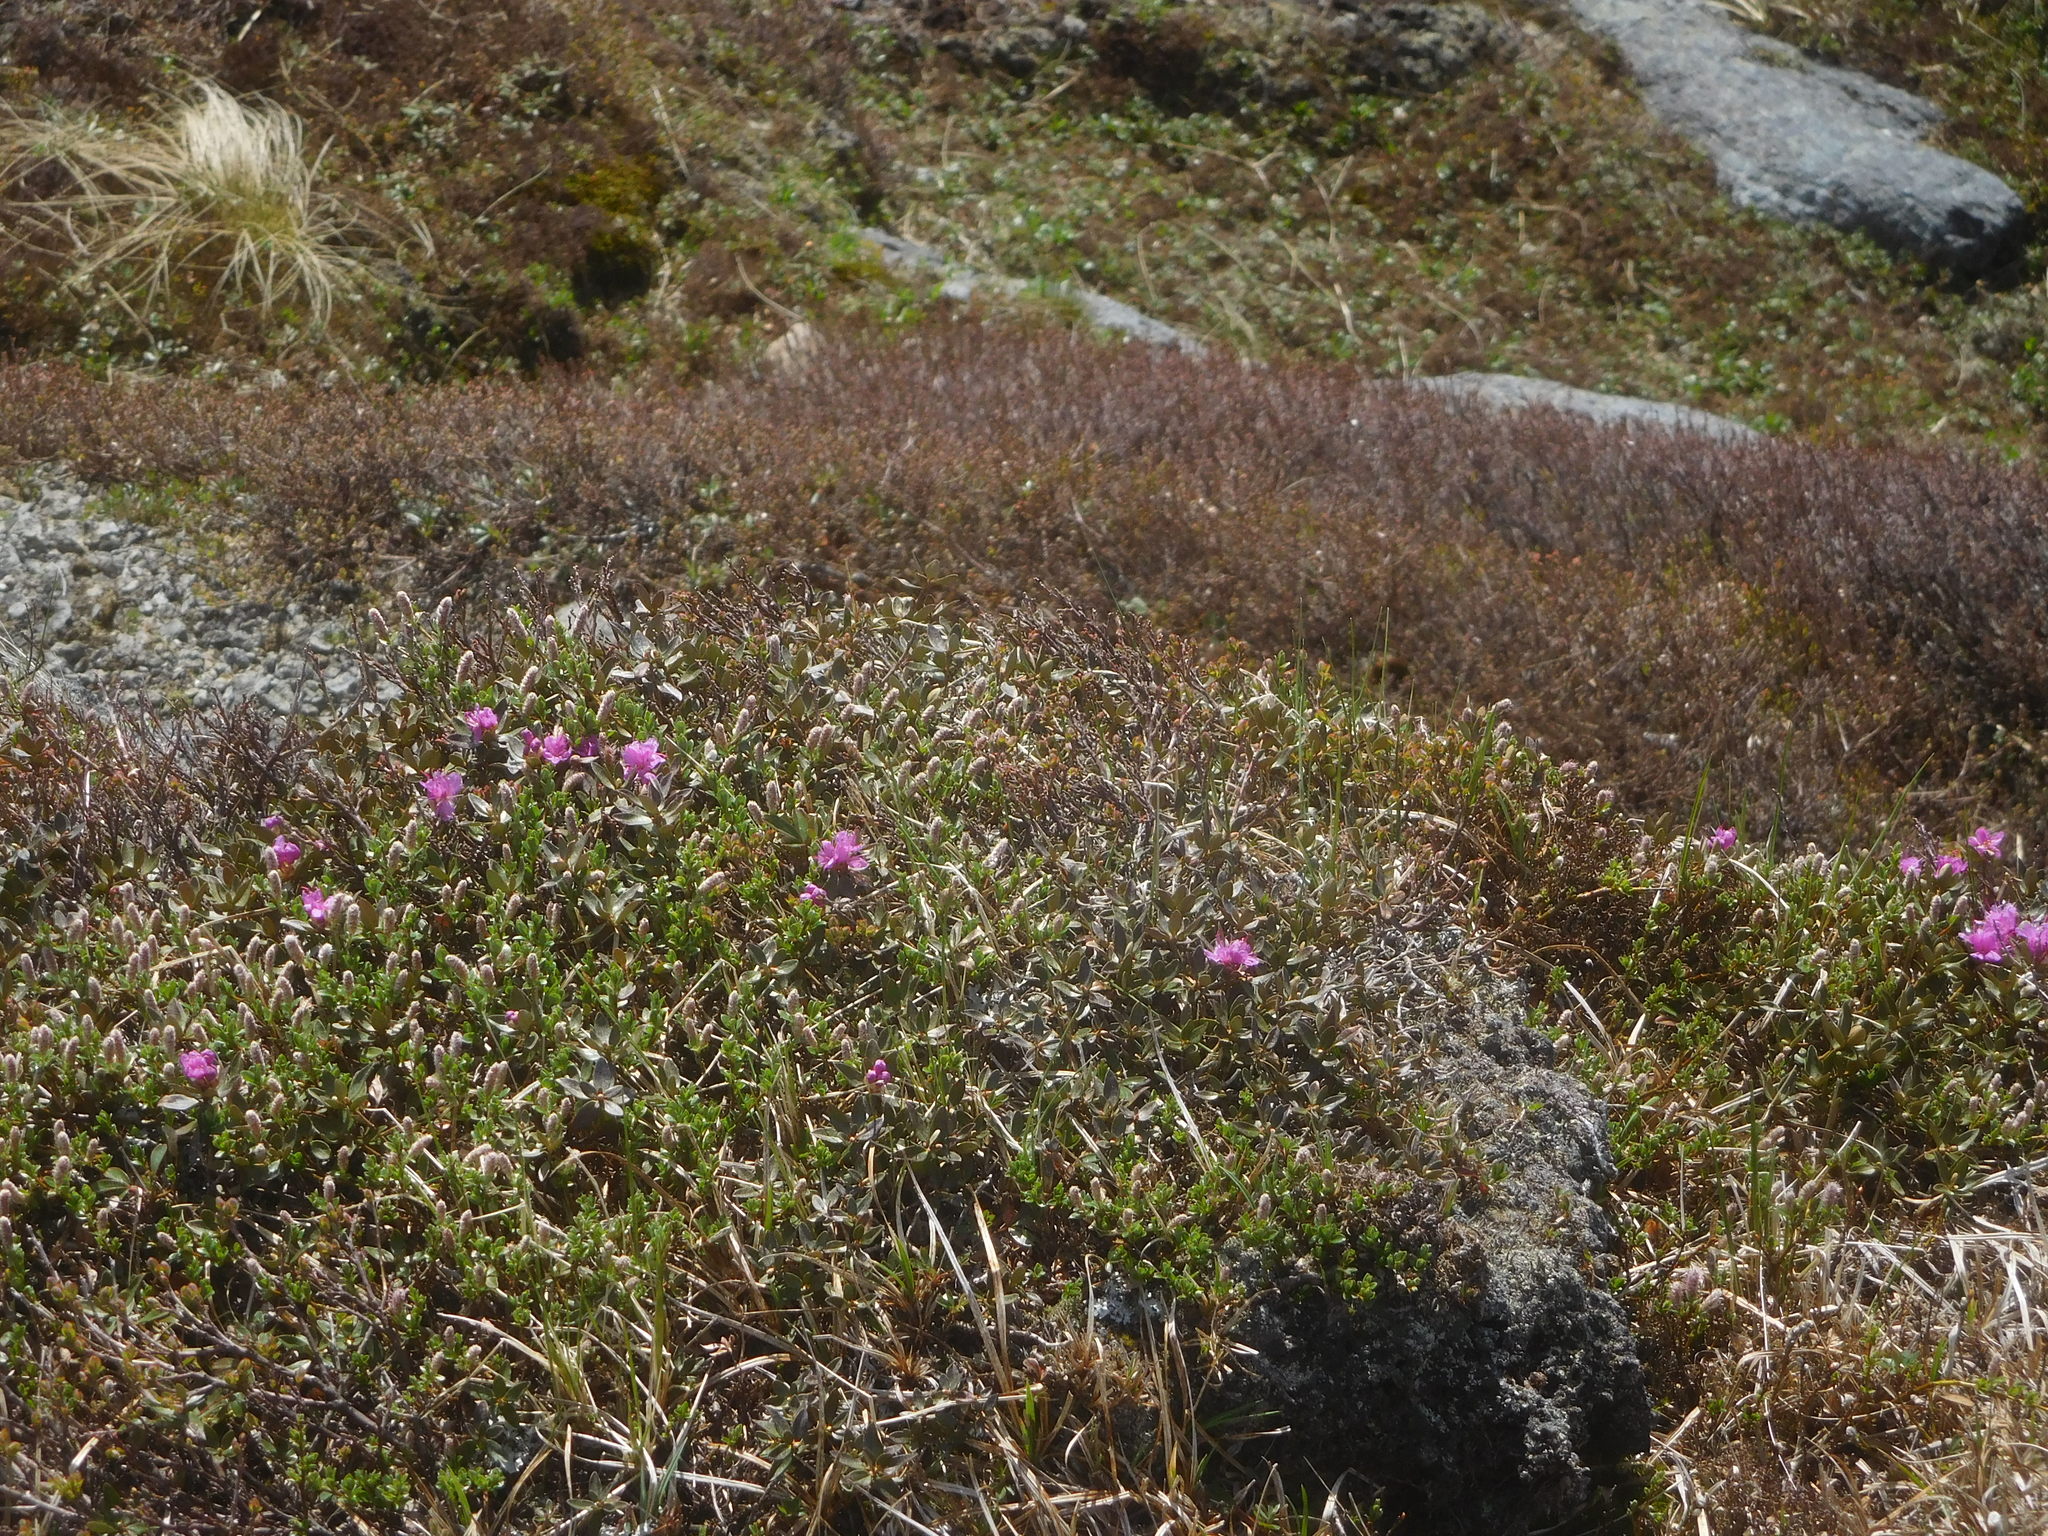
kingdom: Plantae
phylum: Tracheophyta
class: Magnoliopsida
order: Ericales
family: Ericaceae
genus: Rhododendron
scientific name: Rhododendron lapponicum
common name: Lapland rhododendron
